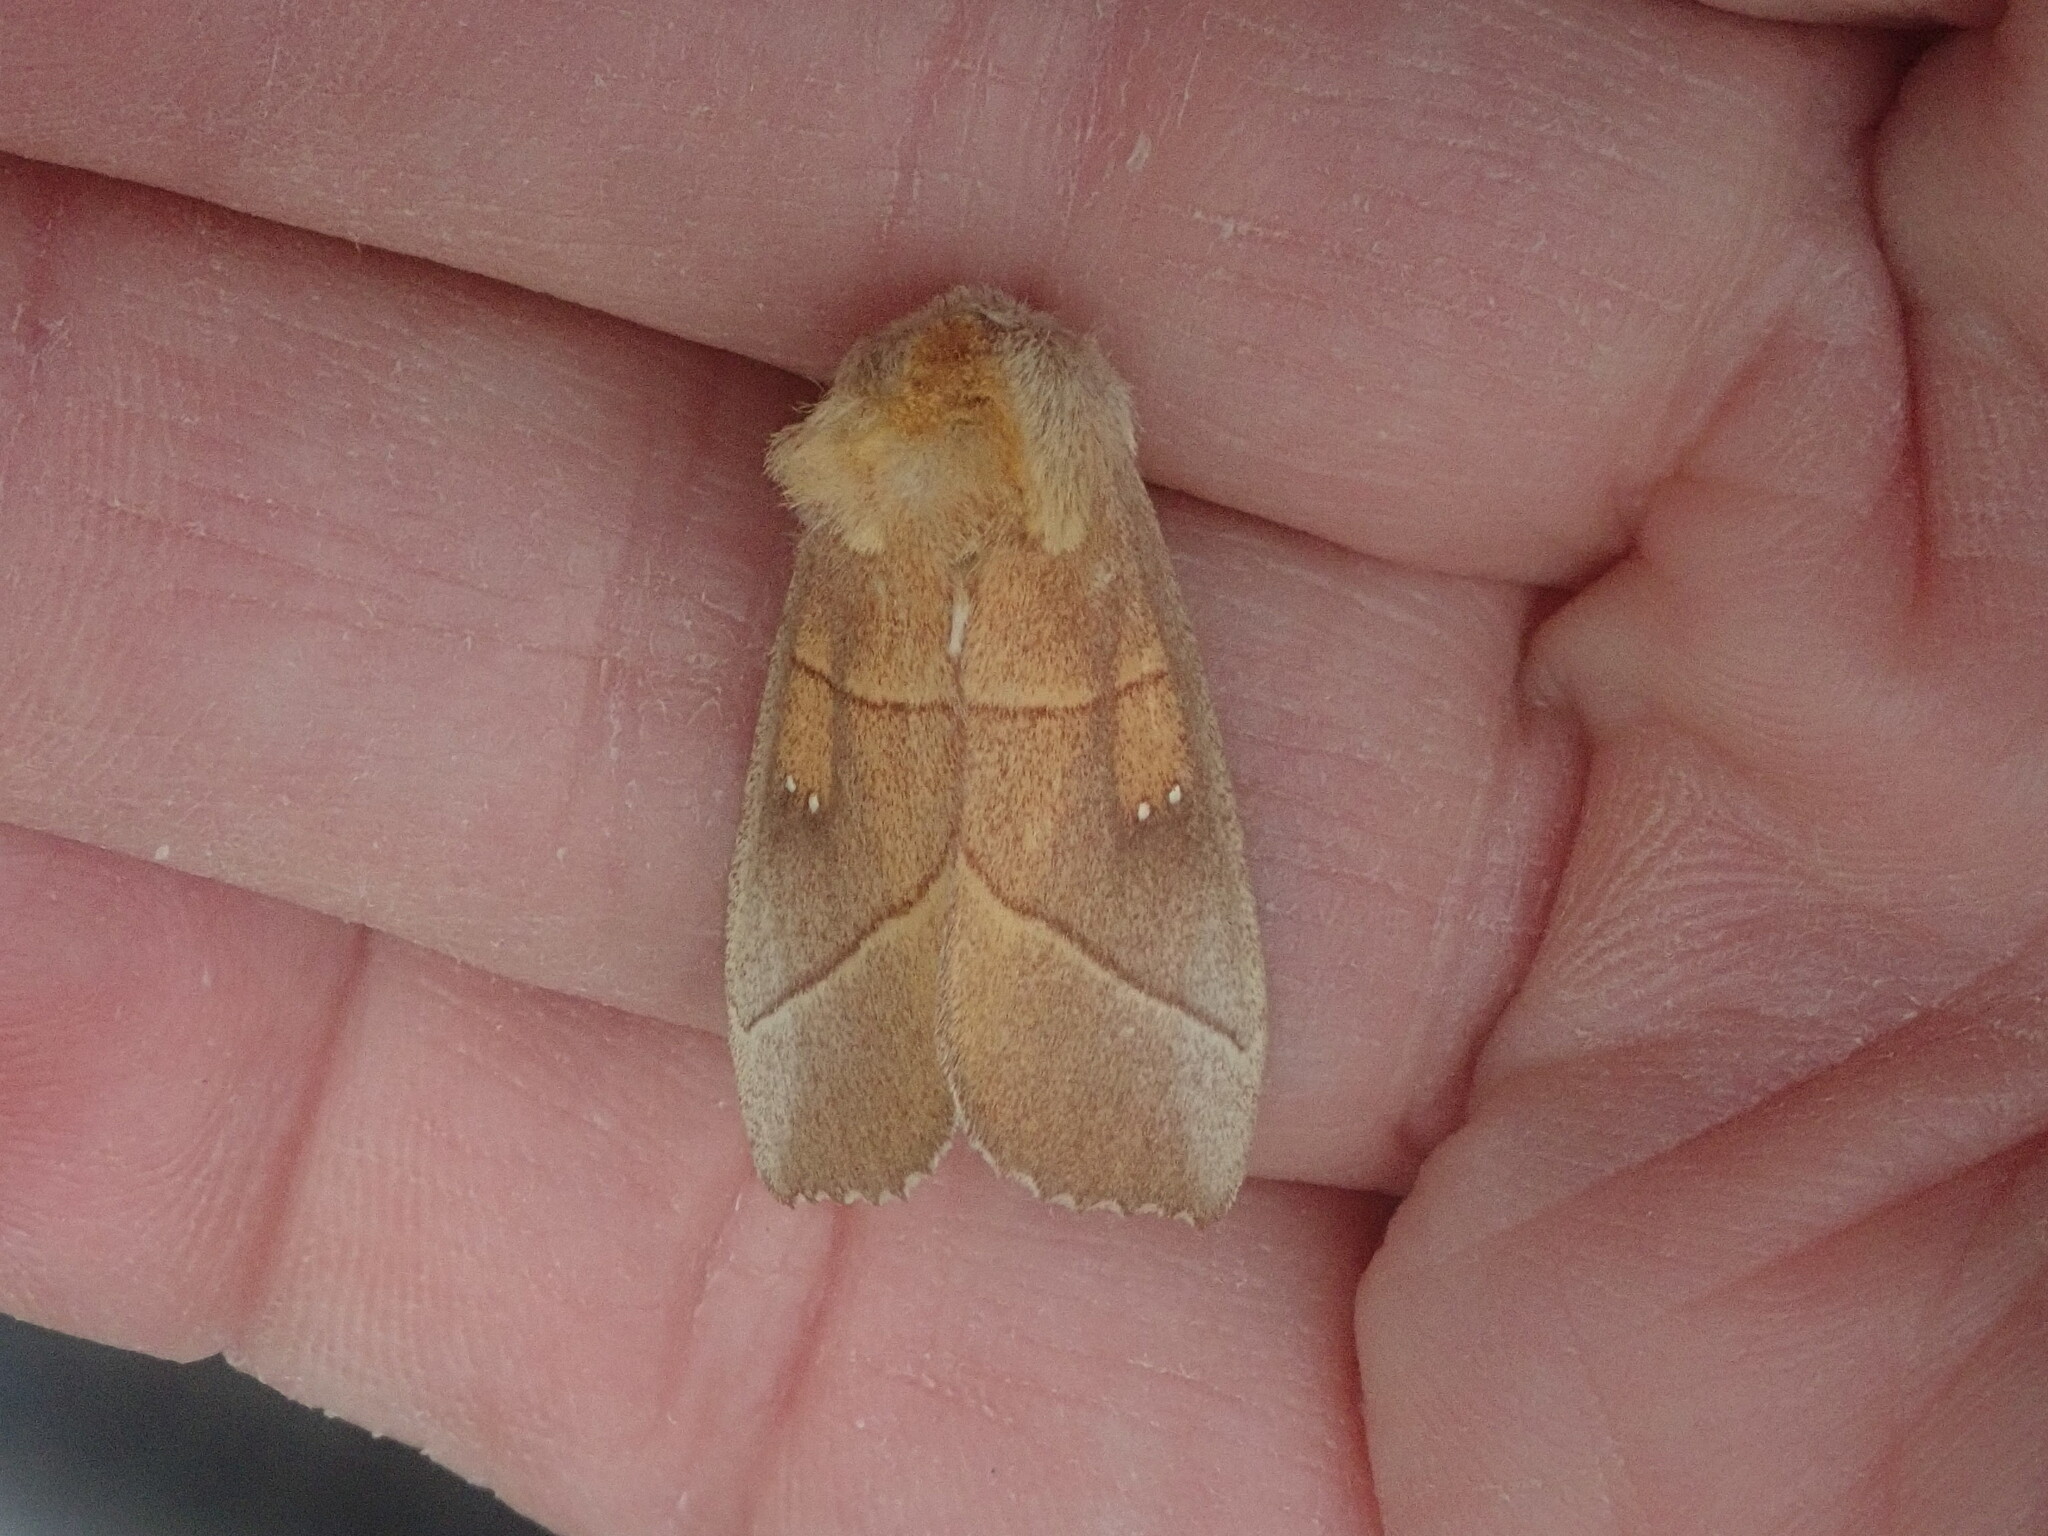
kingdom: Animalia
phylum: Arthropoda
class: Insecta
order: Lepidoptera
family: Notodontidae
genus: Nadata
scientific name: Nadata gibbosa
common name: White-dotted prominent
